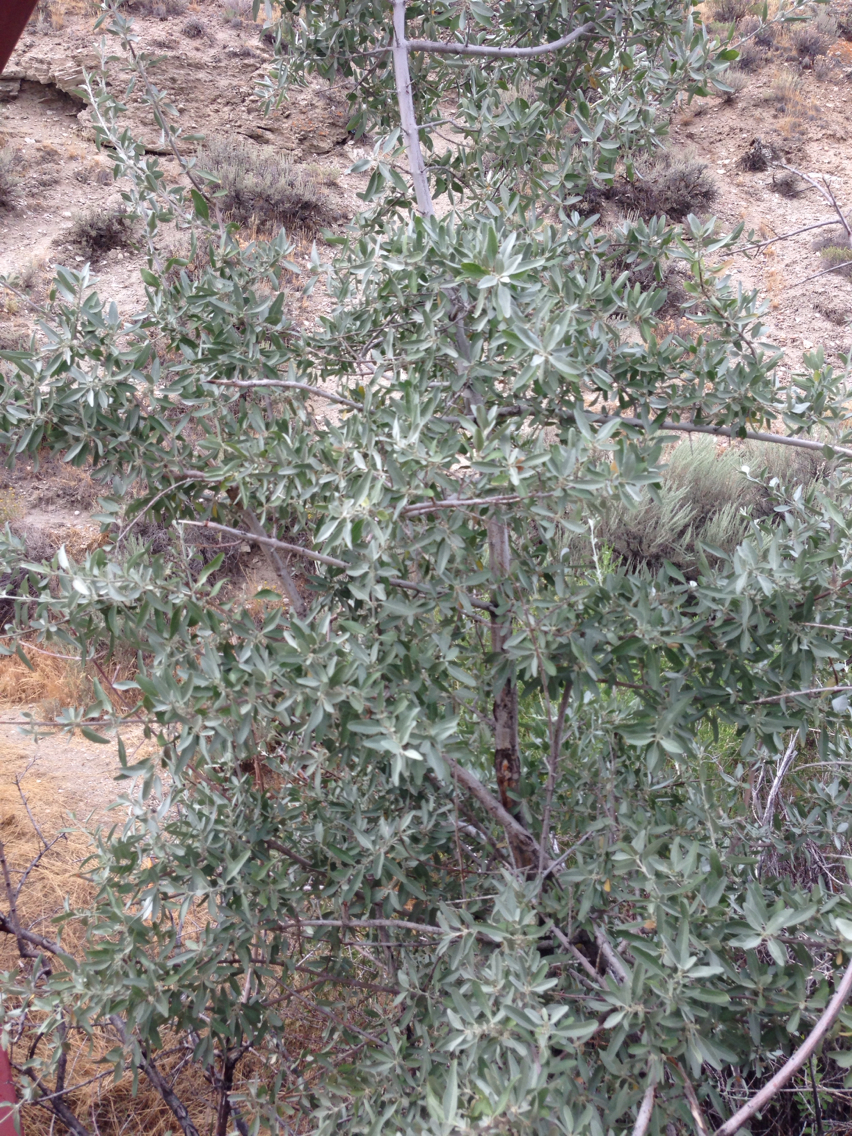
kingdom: Plantae
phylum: Tracheophyta
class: Magnoliopsida
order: Rosales
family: Elaeagnaceae
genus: Elaeagnus
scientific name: Elaeagnus angustifolia
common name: Russian olive
